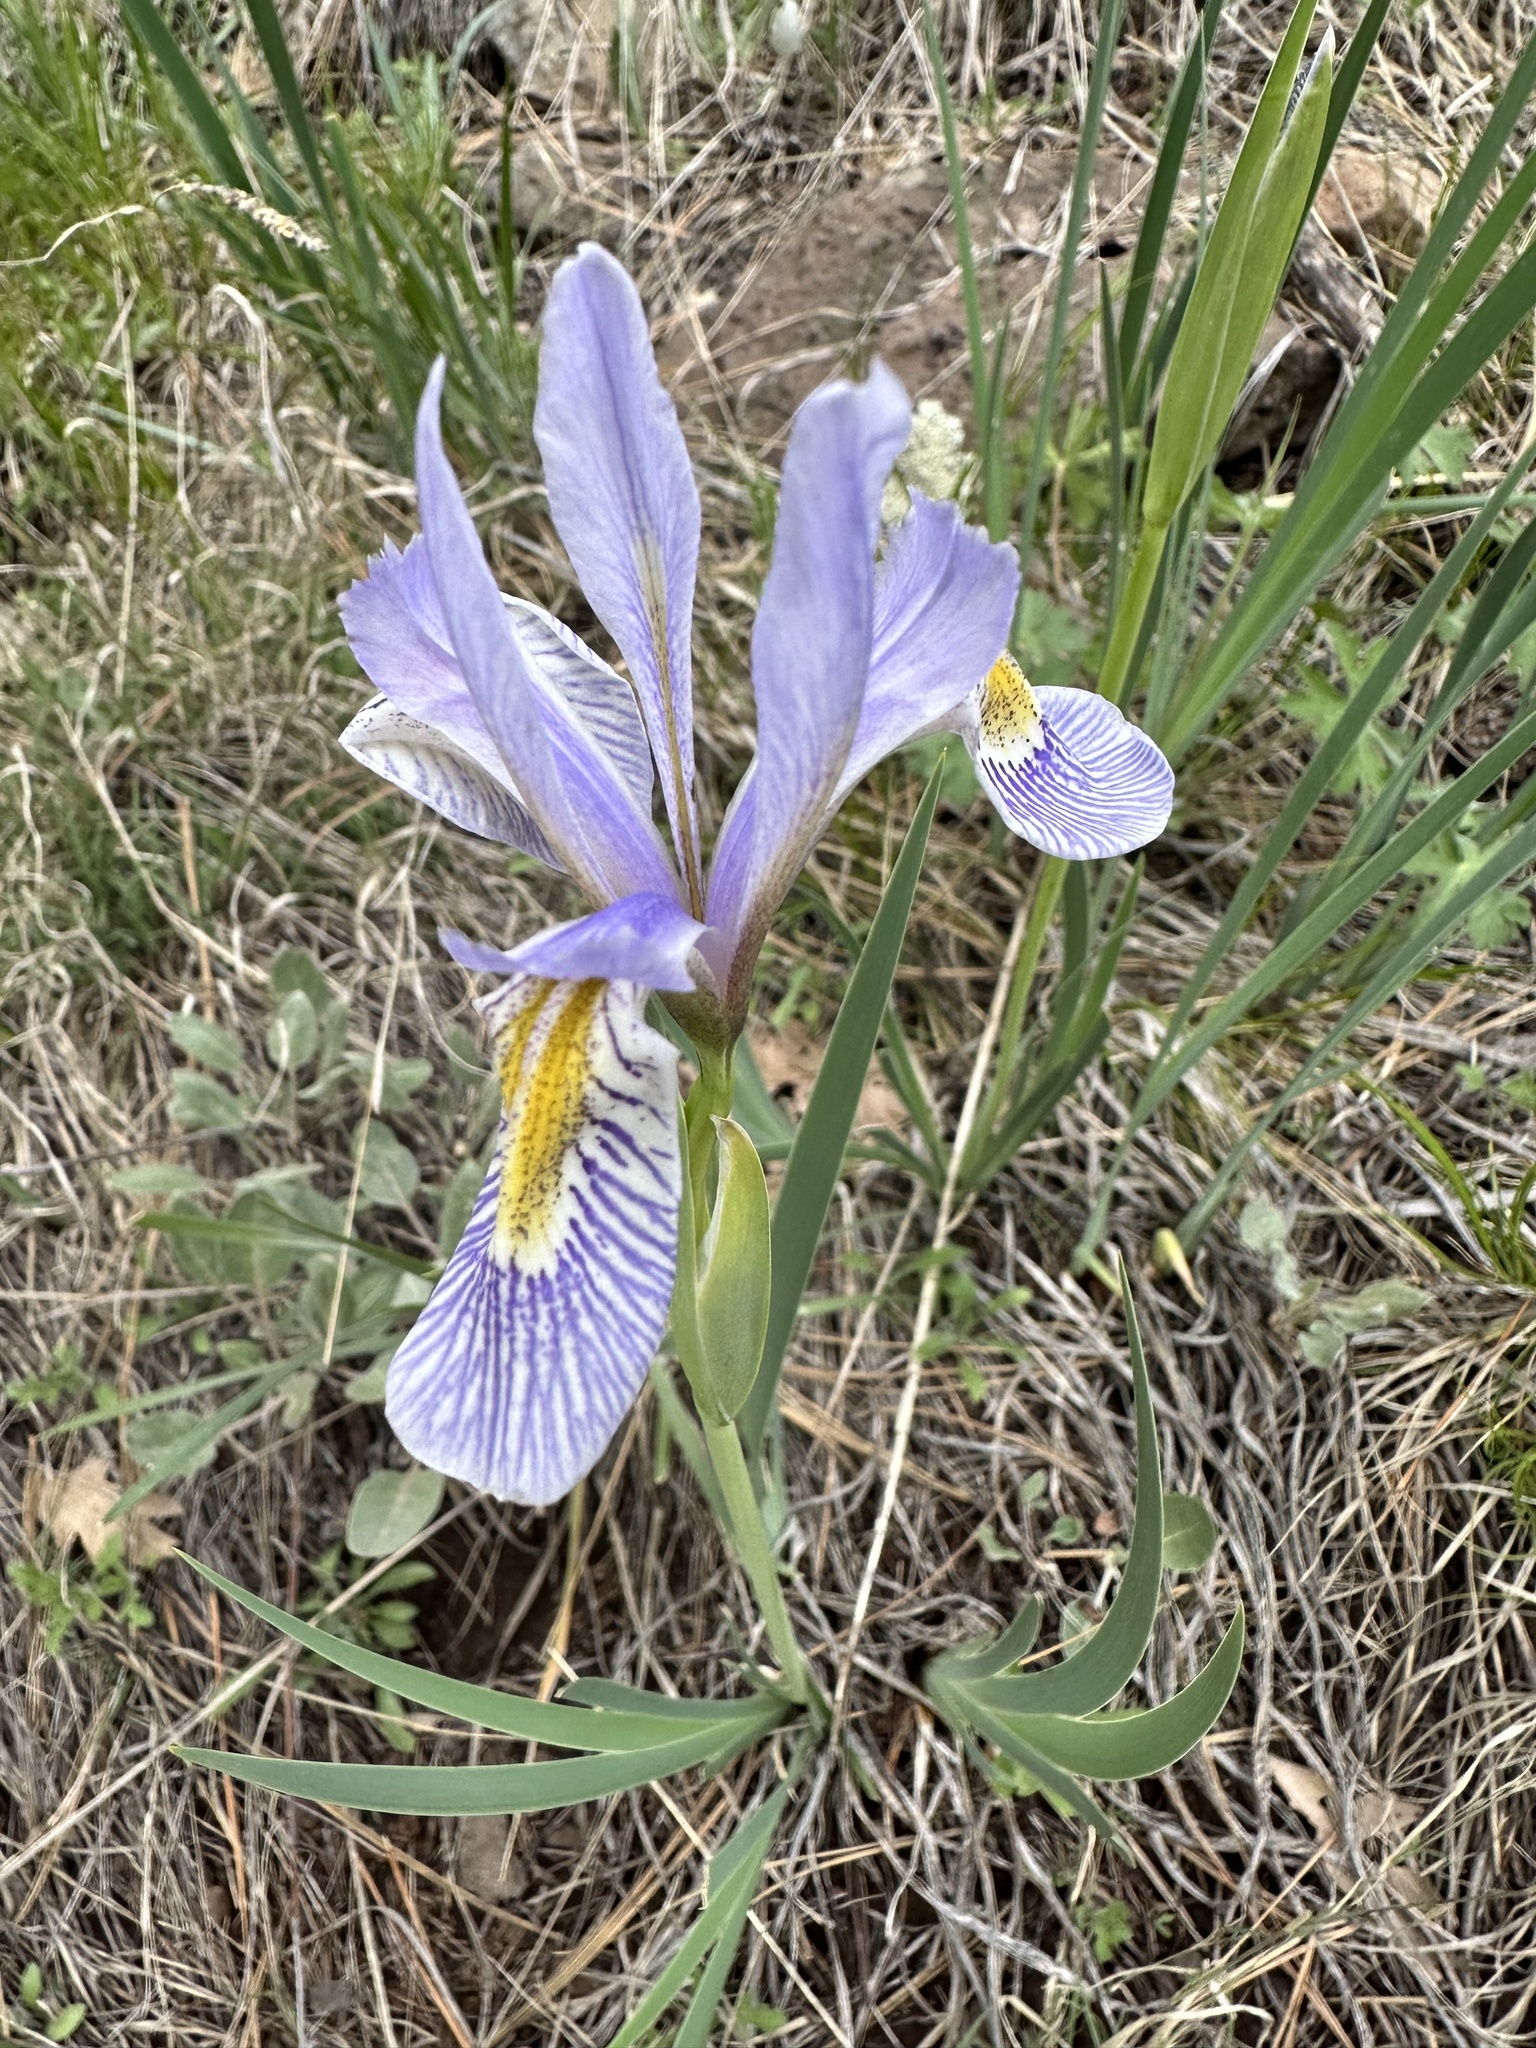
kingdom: Plantae
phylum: Tracheophyta
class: Liliopsida
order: Asparagales
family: Iridaceae
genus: Iris
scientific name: Iris missouriensis
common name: Rocky mountain iris
